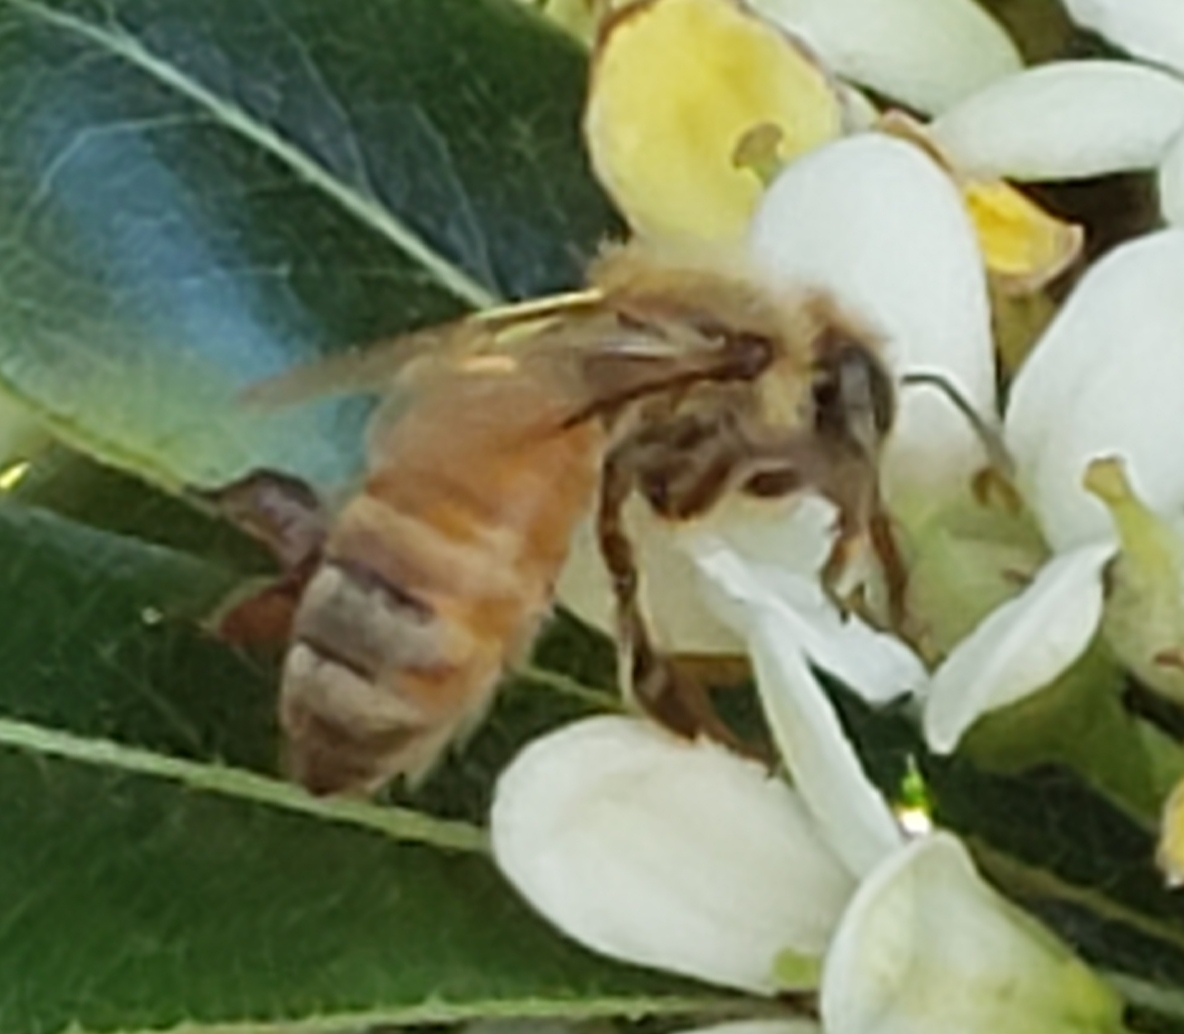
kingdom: Animalia
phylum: Arthropoda
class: Insecta
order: Hymenoptera
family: Apidae
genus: Apis
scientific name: Apis mellifera
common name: Honey bee
